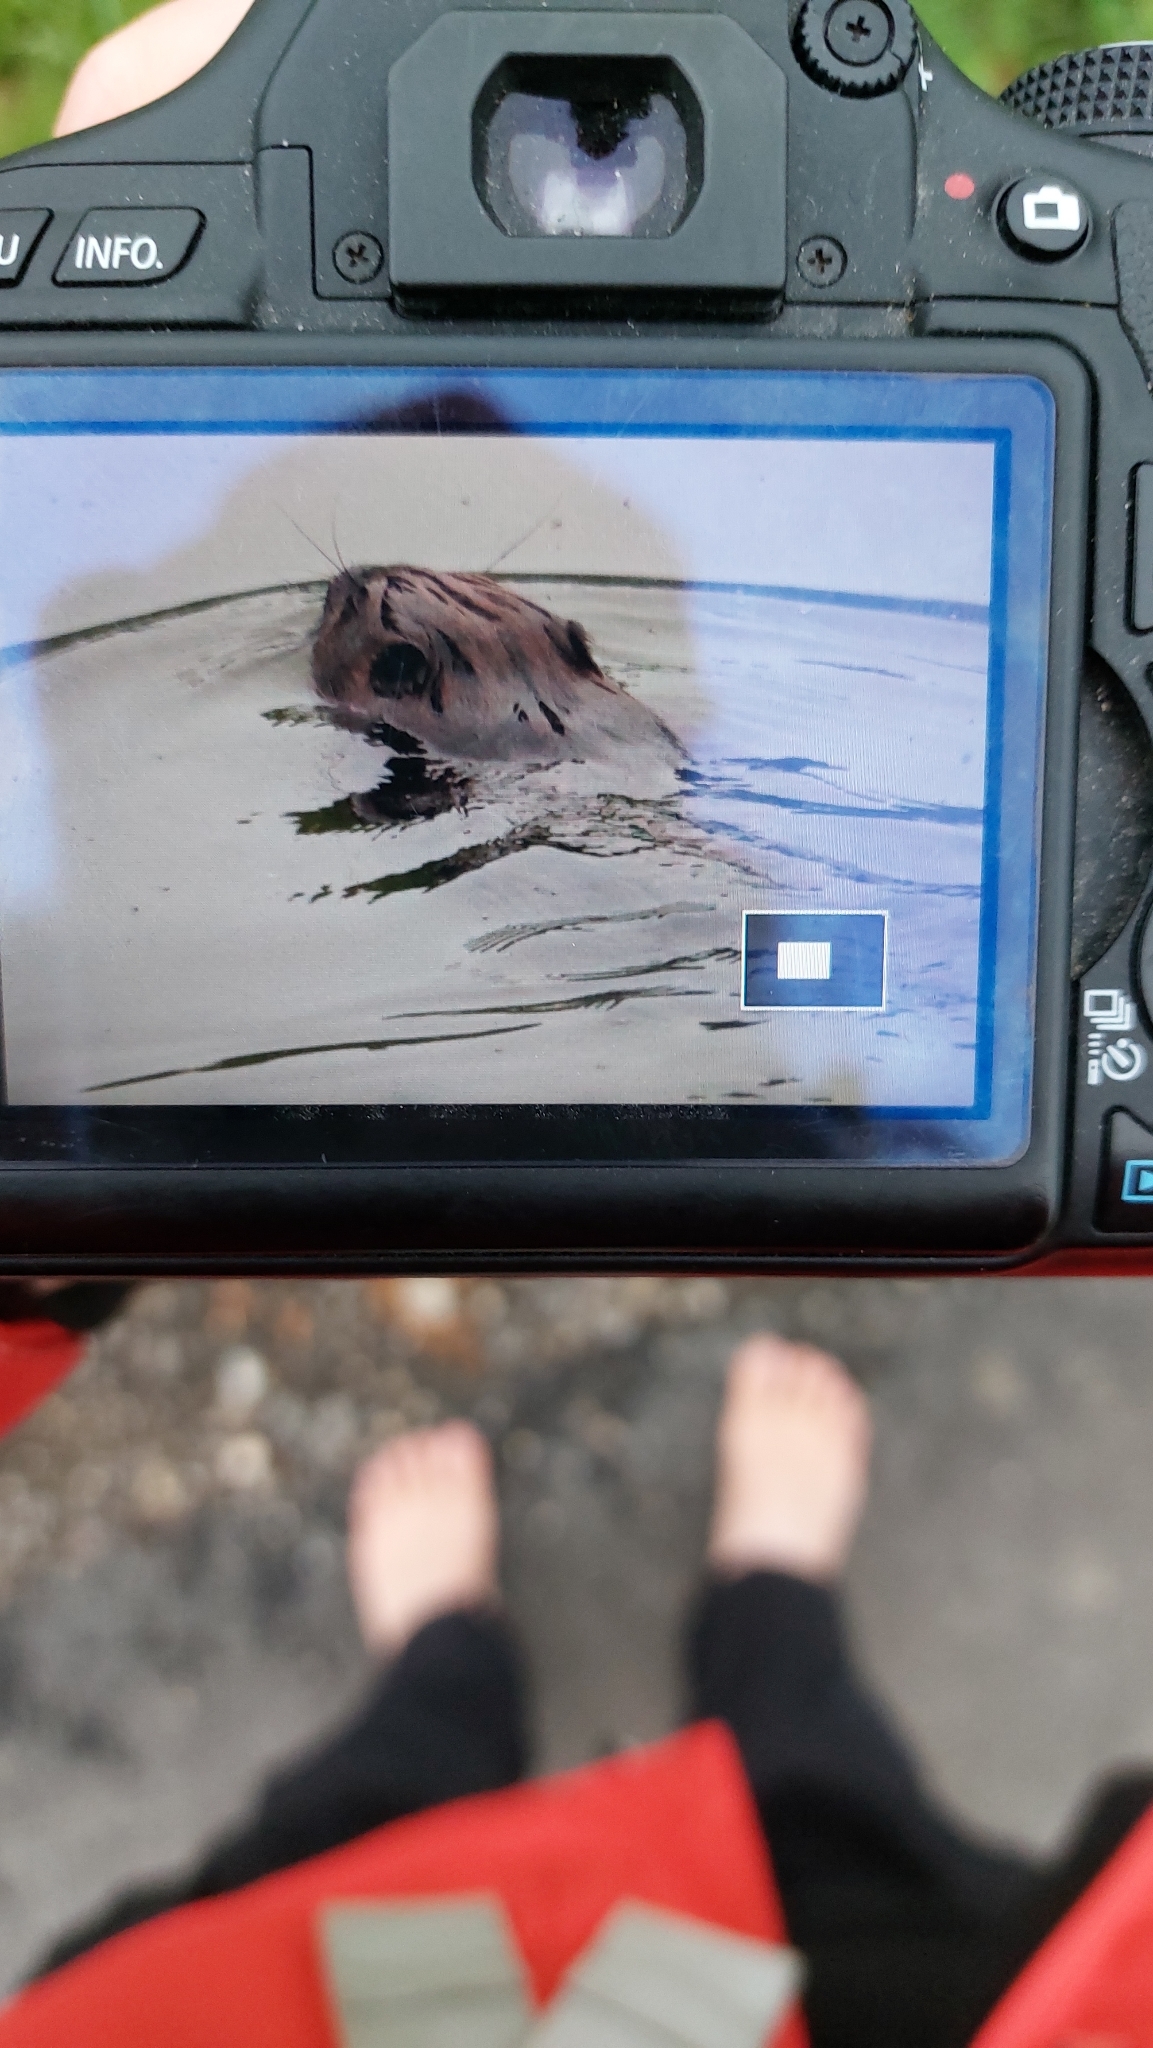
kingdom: Animalia
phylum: Chordata
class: Mammalia
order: Rodentia
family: Castoridae
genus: Castor
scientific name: Castor fiber
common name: Eurasian beaver
